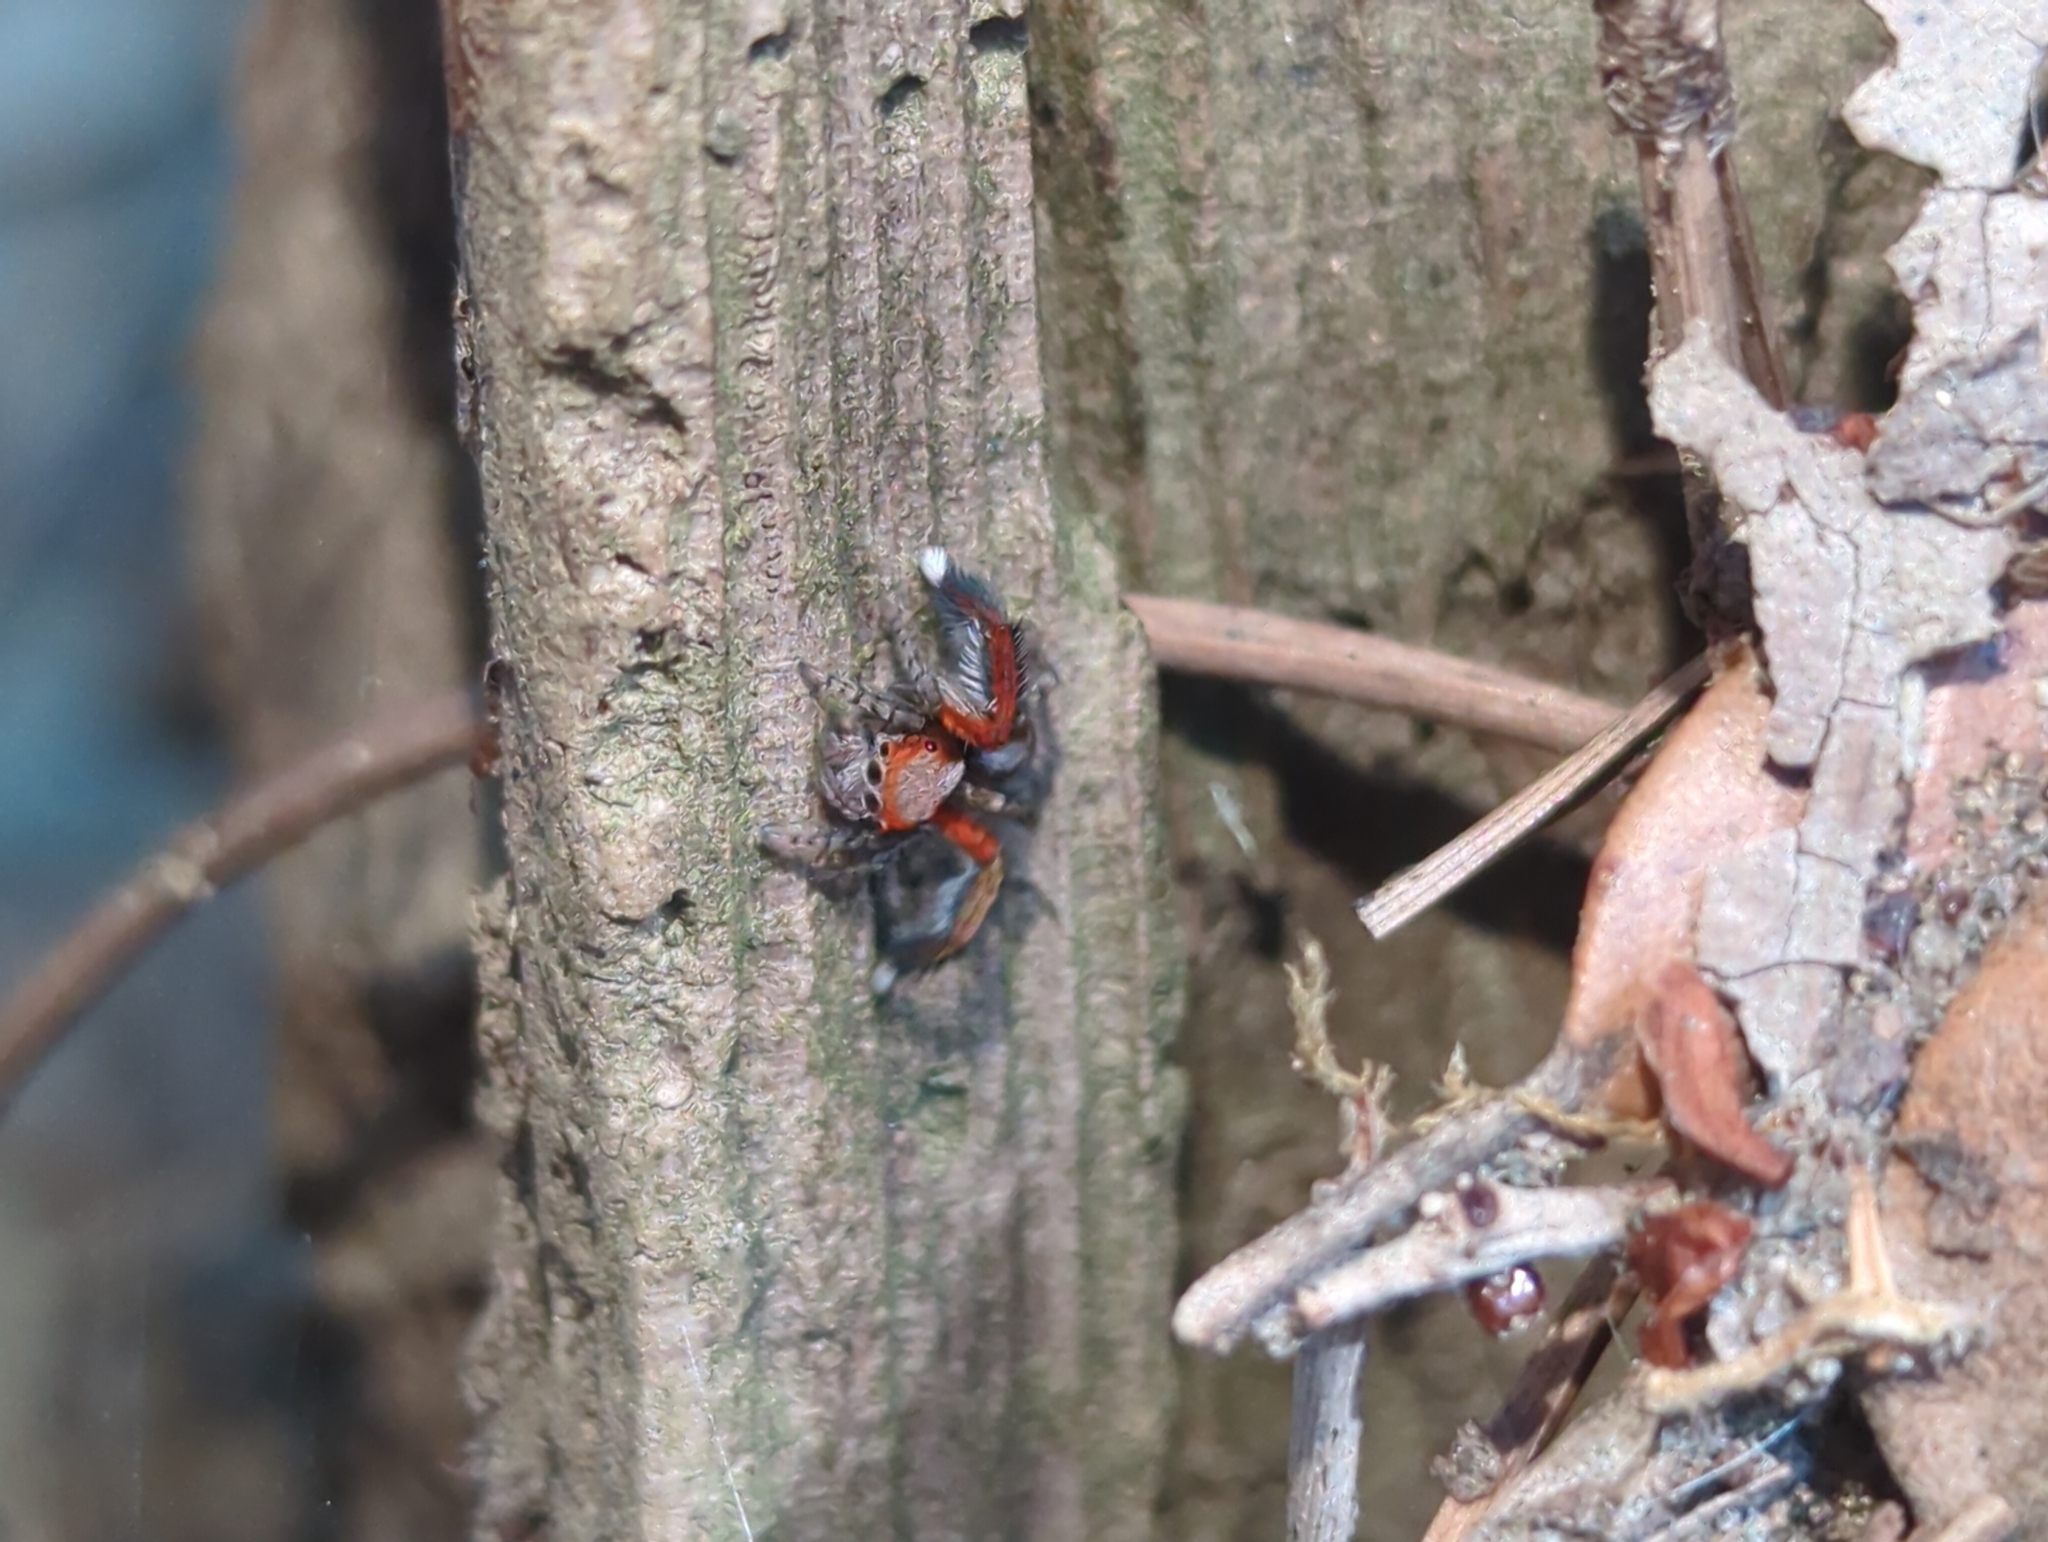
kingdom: Animalia
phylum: Arthropoda
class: Arachnida
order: Araneae
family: Salticidae
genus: Saitis
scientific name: Saitis barbipes
